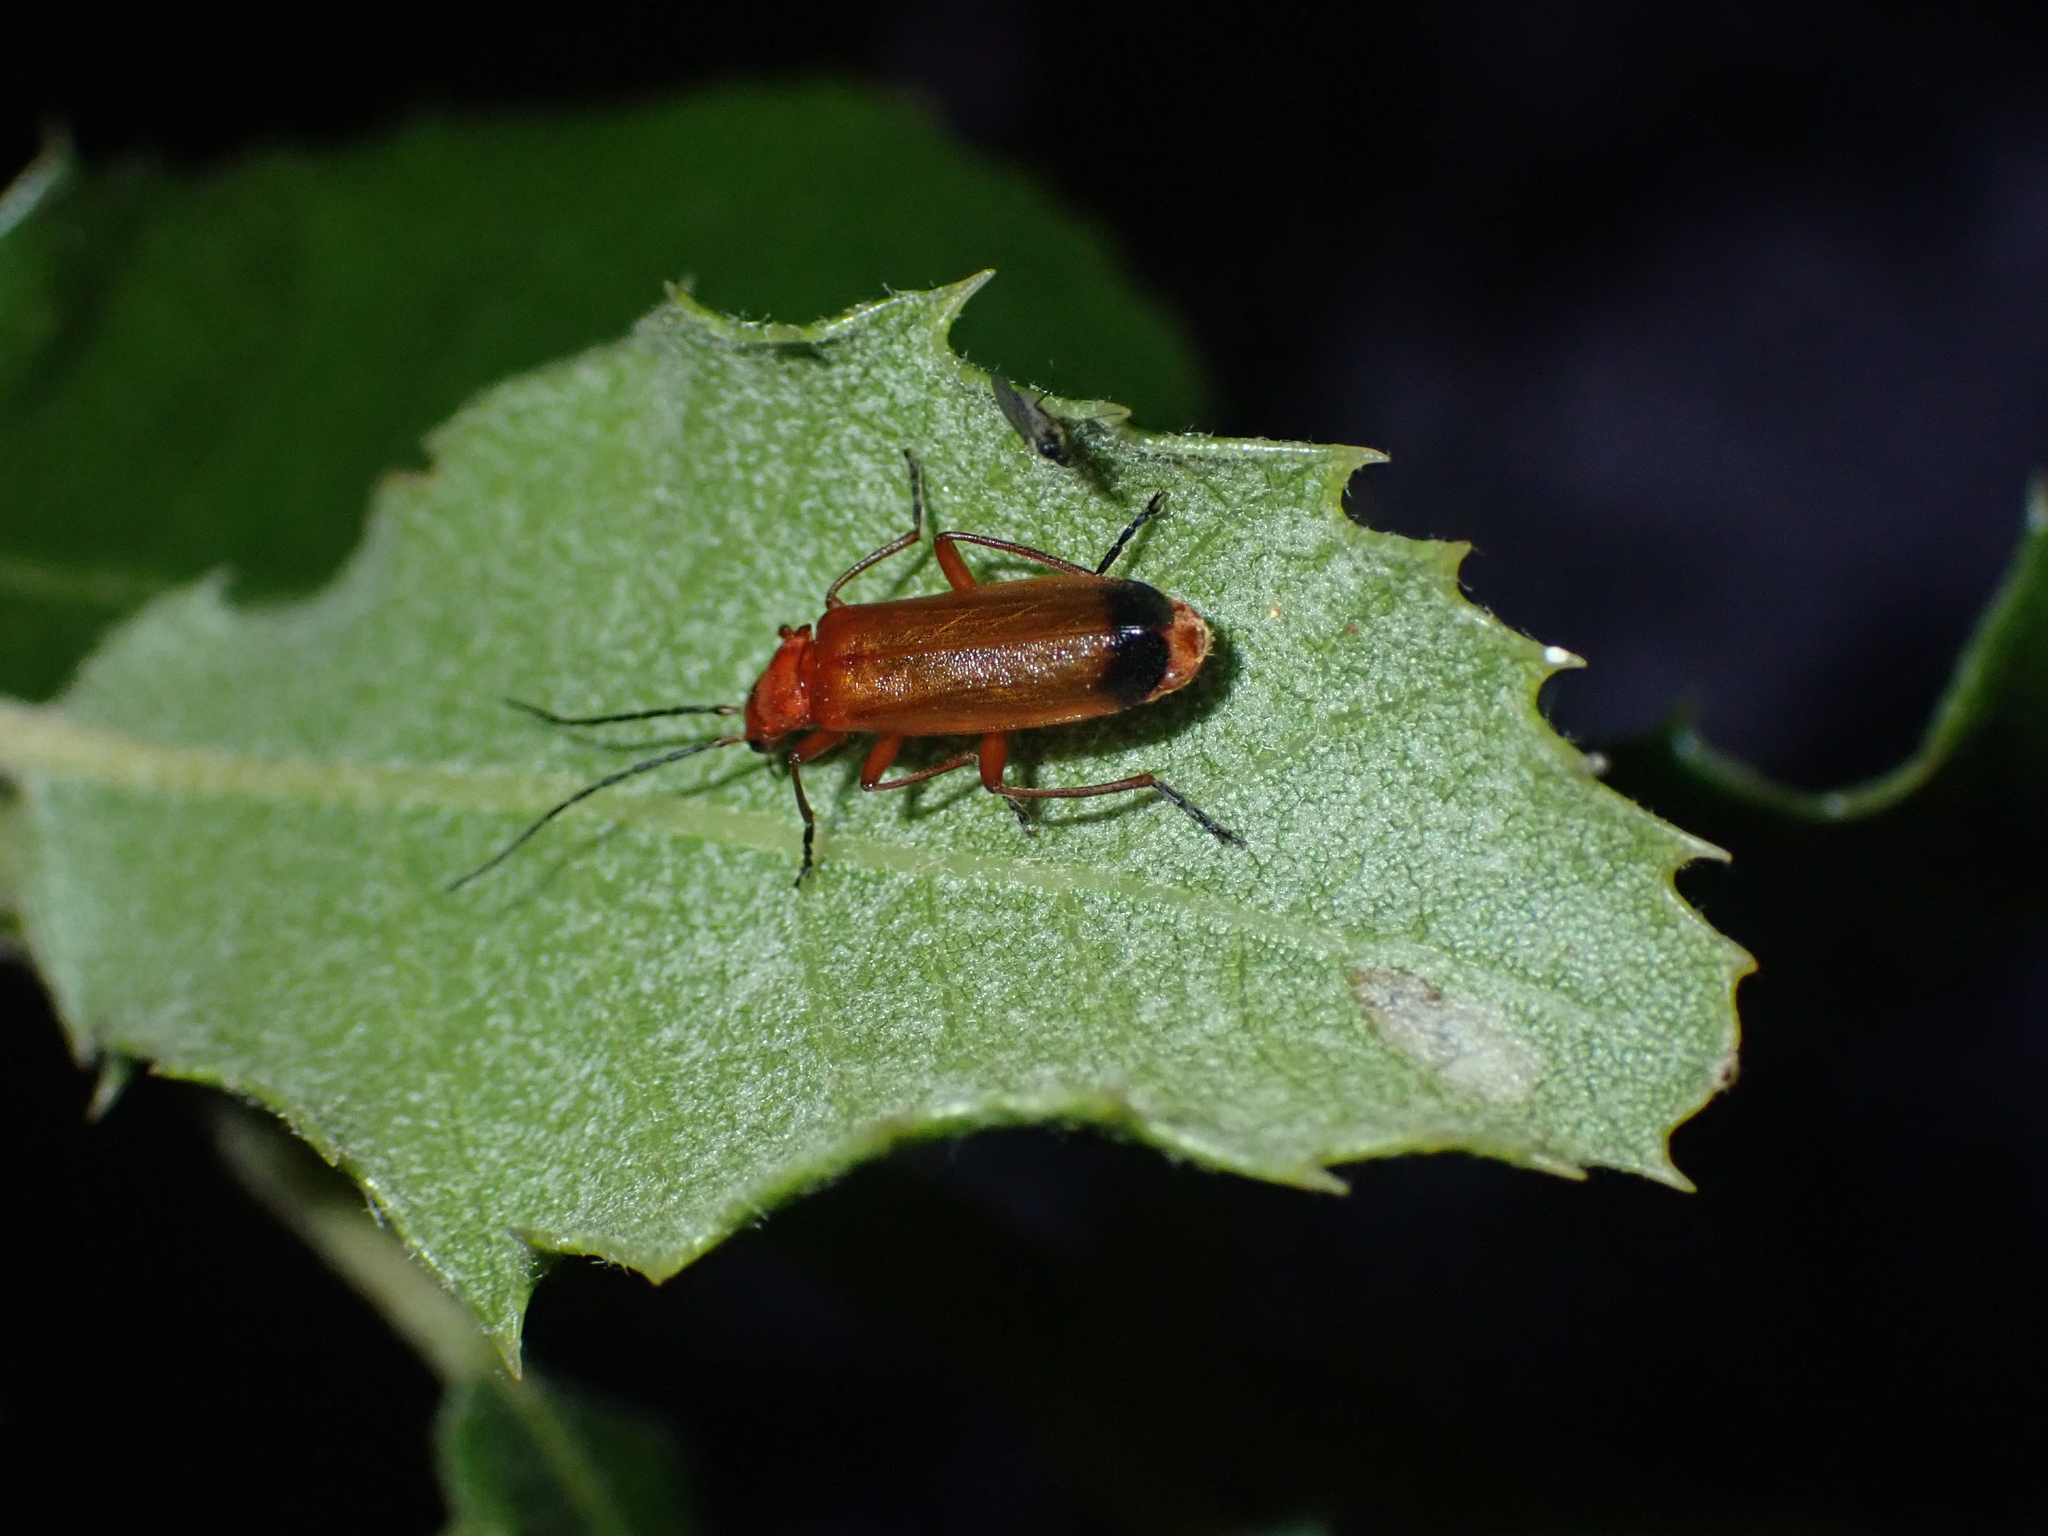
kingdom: Animalia
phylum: Arthropoda
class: Insecta
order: Coleoptera
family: Cantharidae
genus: Rhagonycha
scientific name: Rhagonycha fulva
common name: Common red soldier beetle
